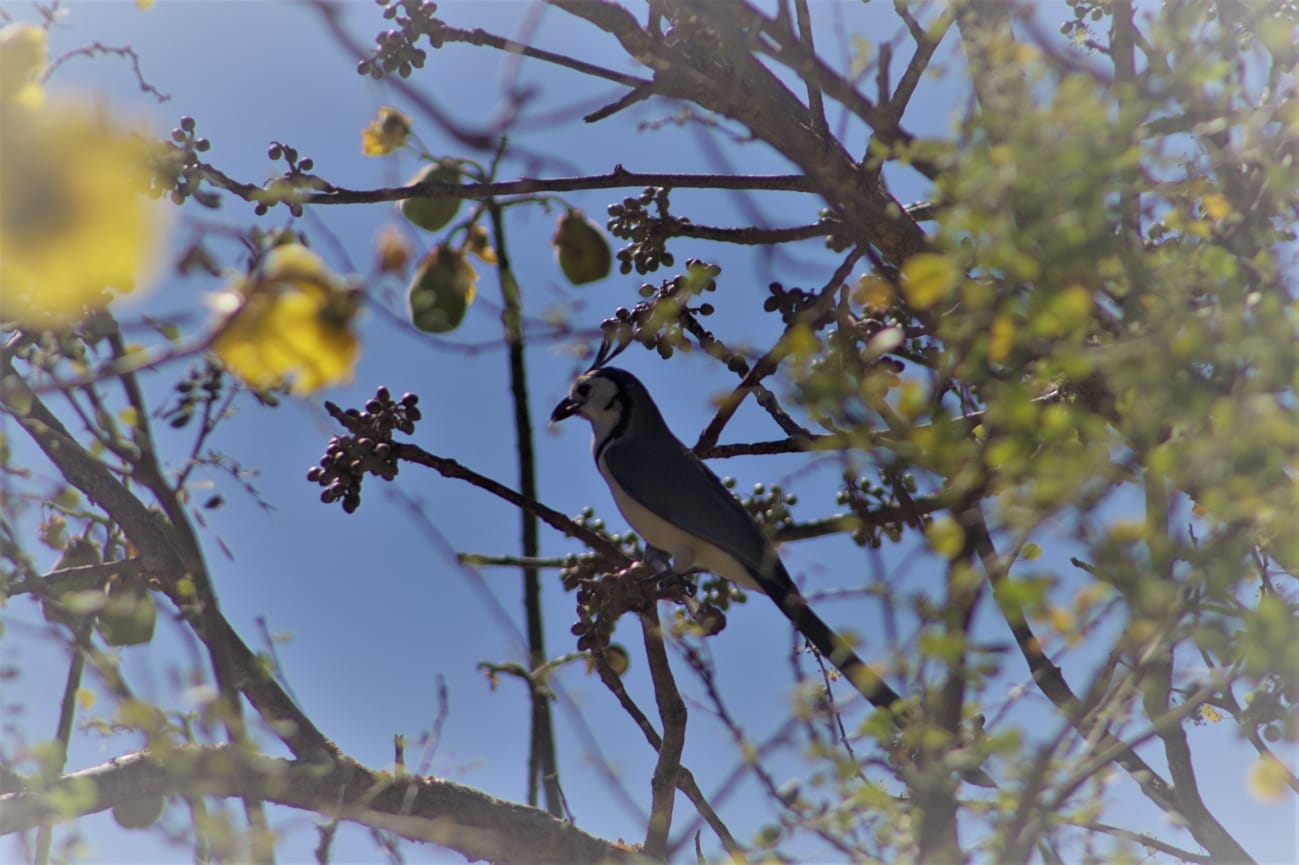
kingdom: Animalia
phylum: Chordata
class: Aves
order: Passeriformes
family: Corvidae
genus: Calocitta
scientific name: Calocitta formosa
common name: White-throated magpie-jay
